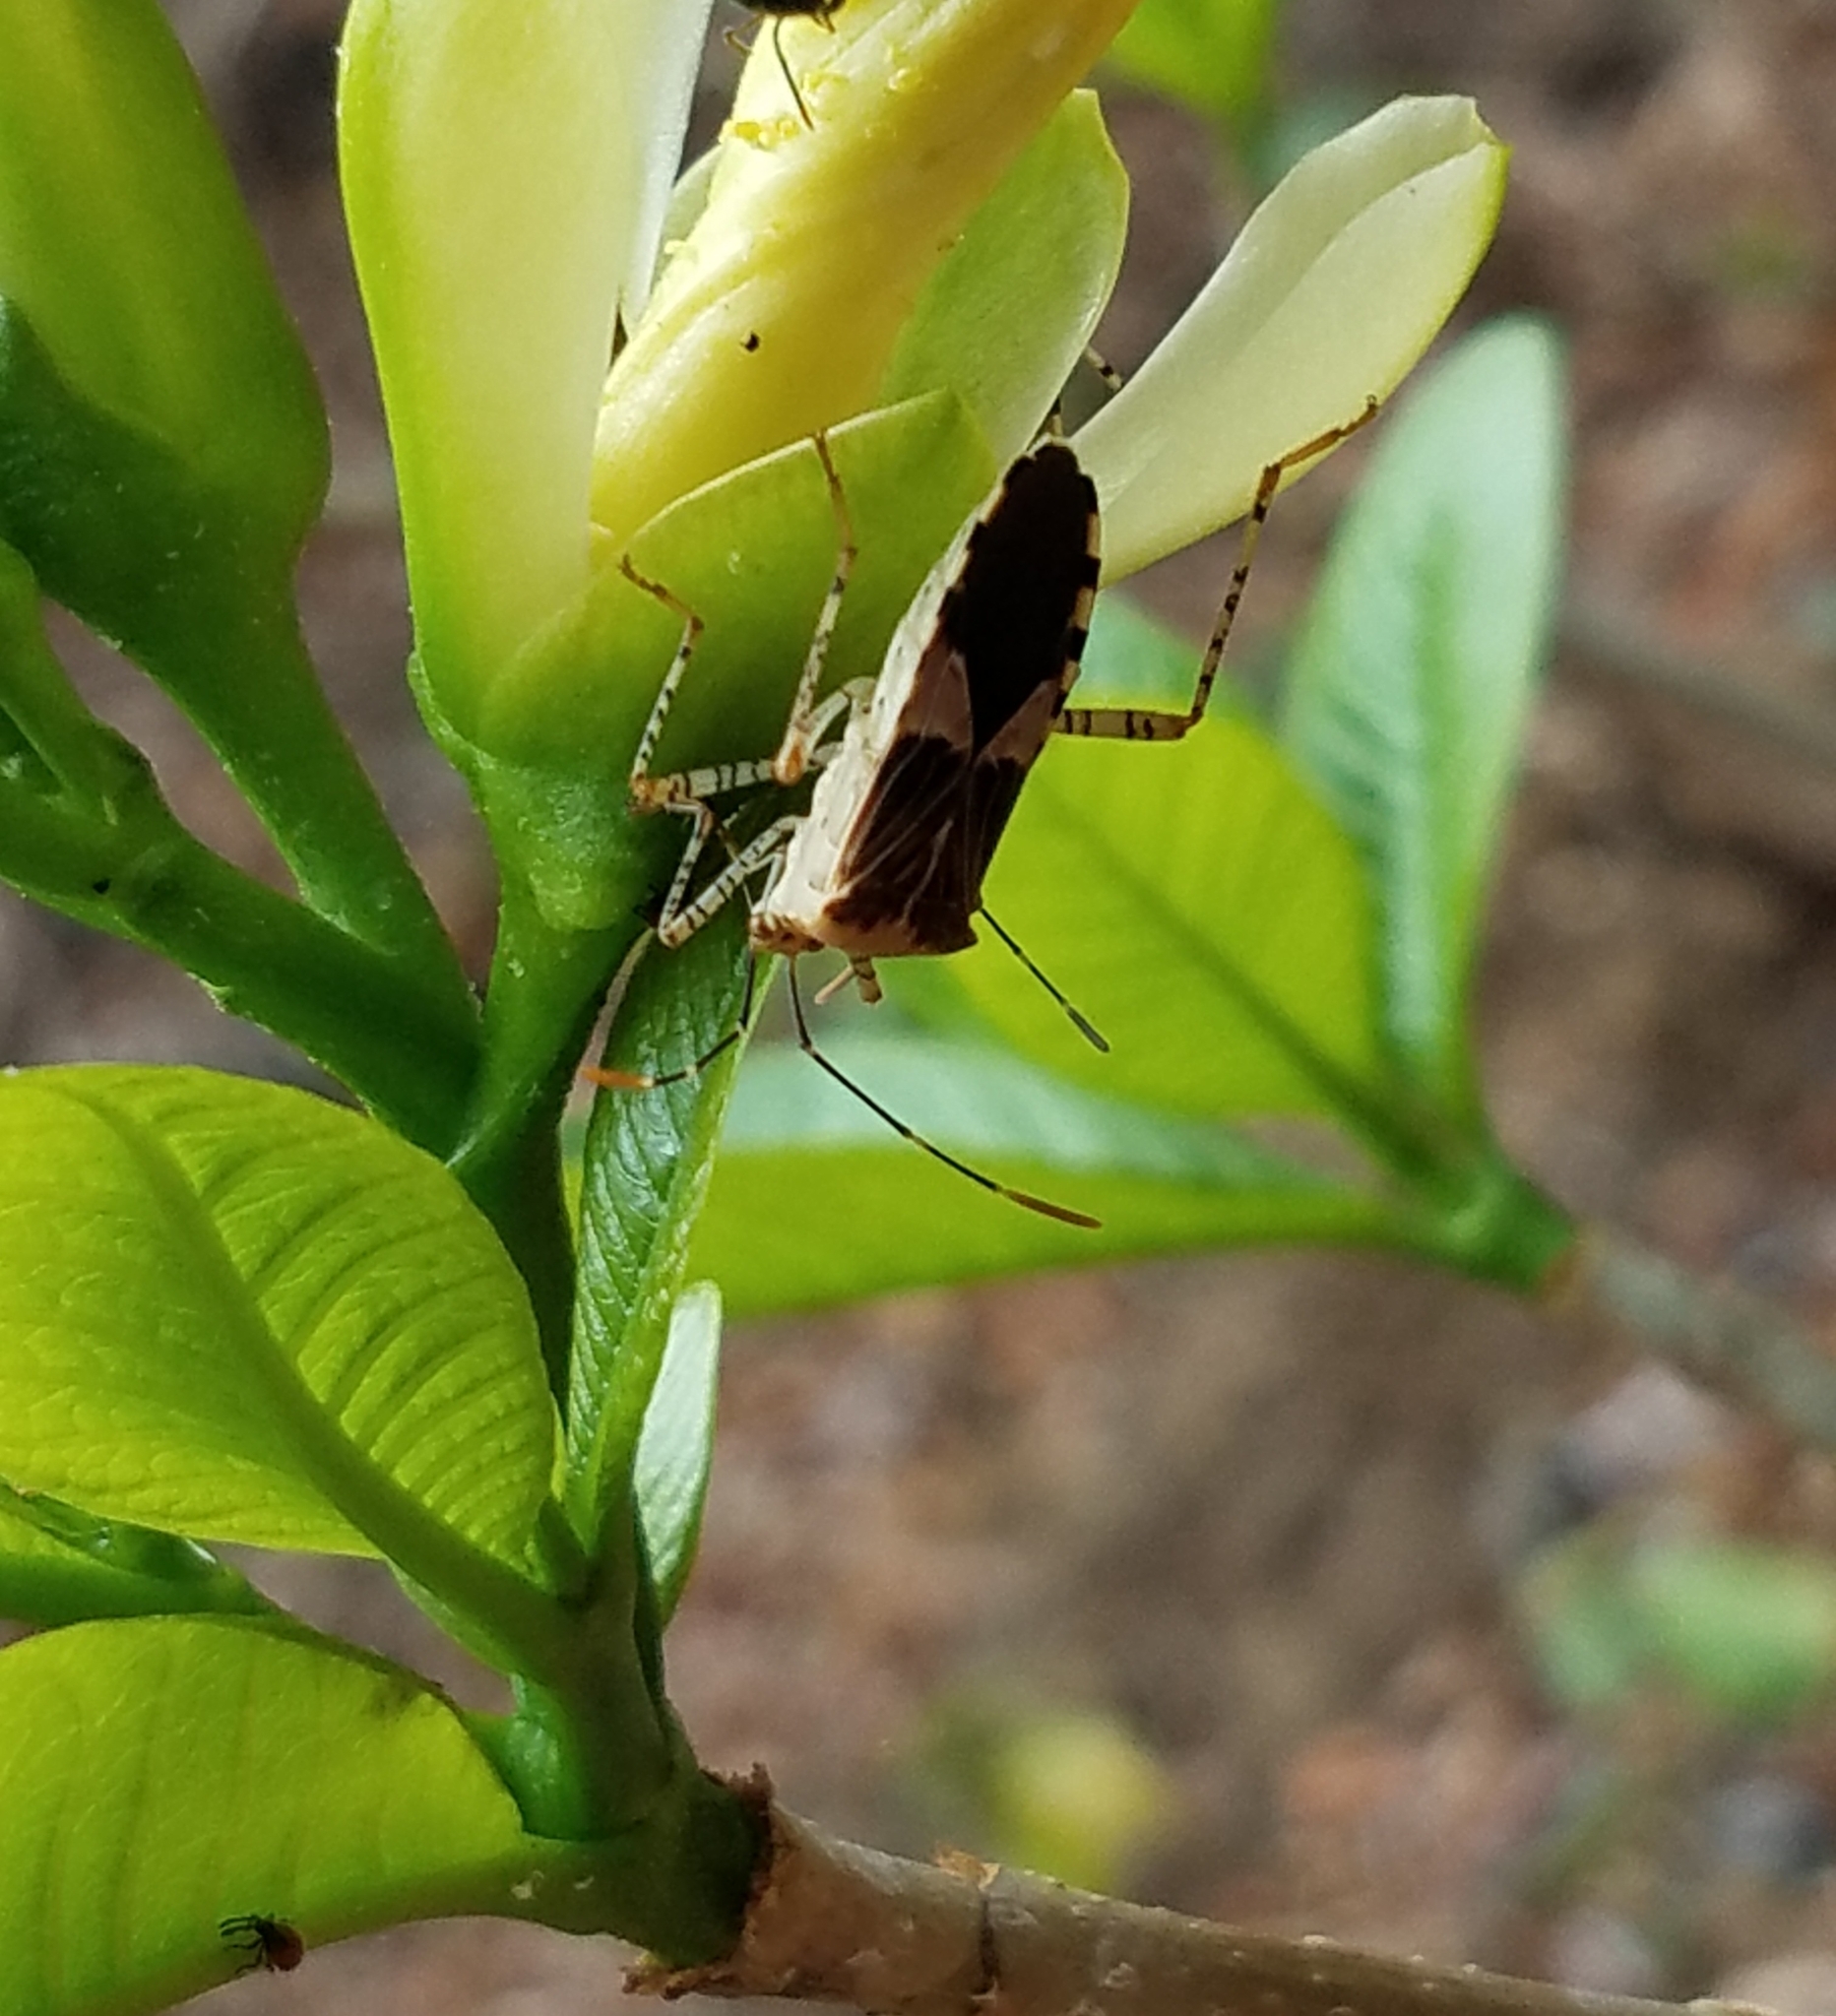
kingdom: Animalia
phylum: Arthropoda
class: Insecta
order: Hemiptera
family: Coreidae
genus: Hypselonotus
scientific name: Hypselonotus punctiventris
